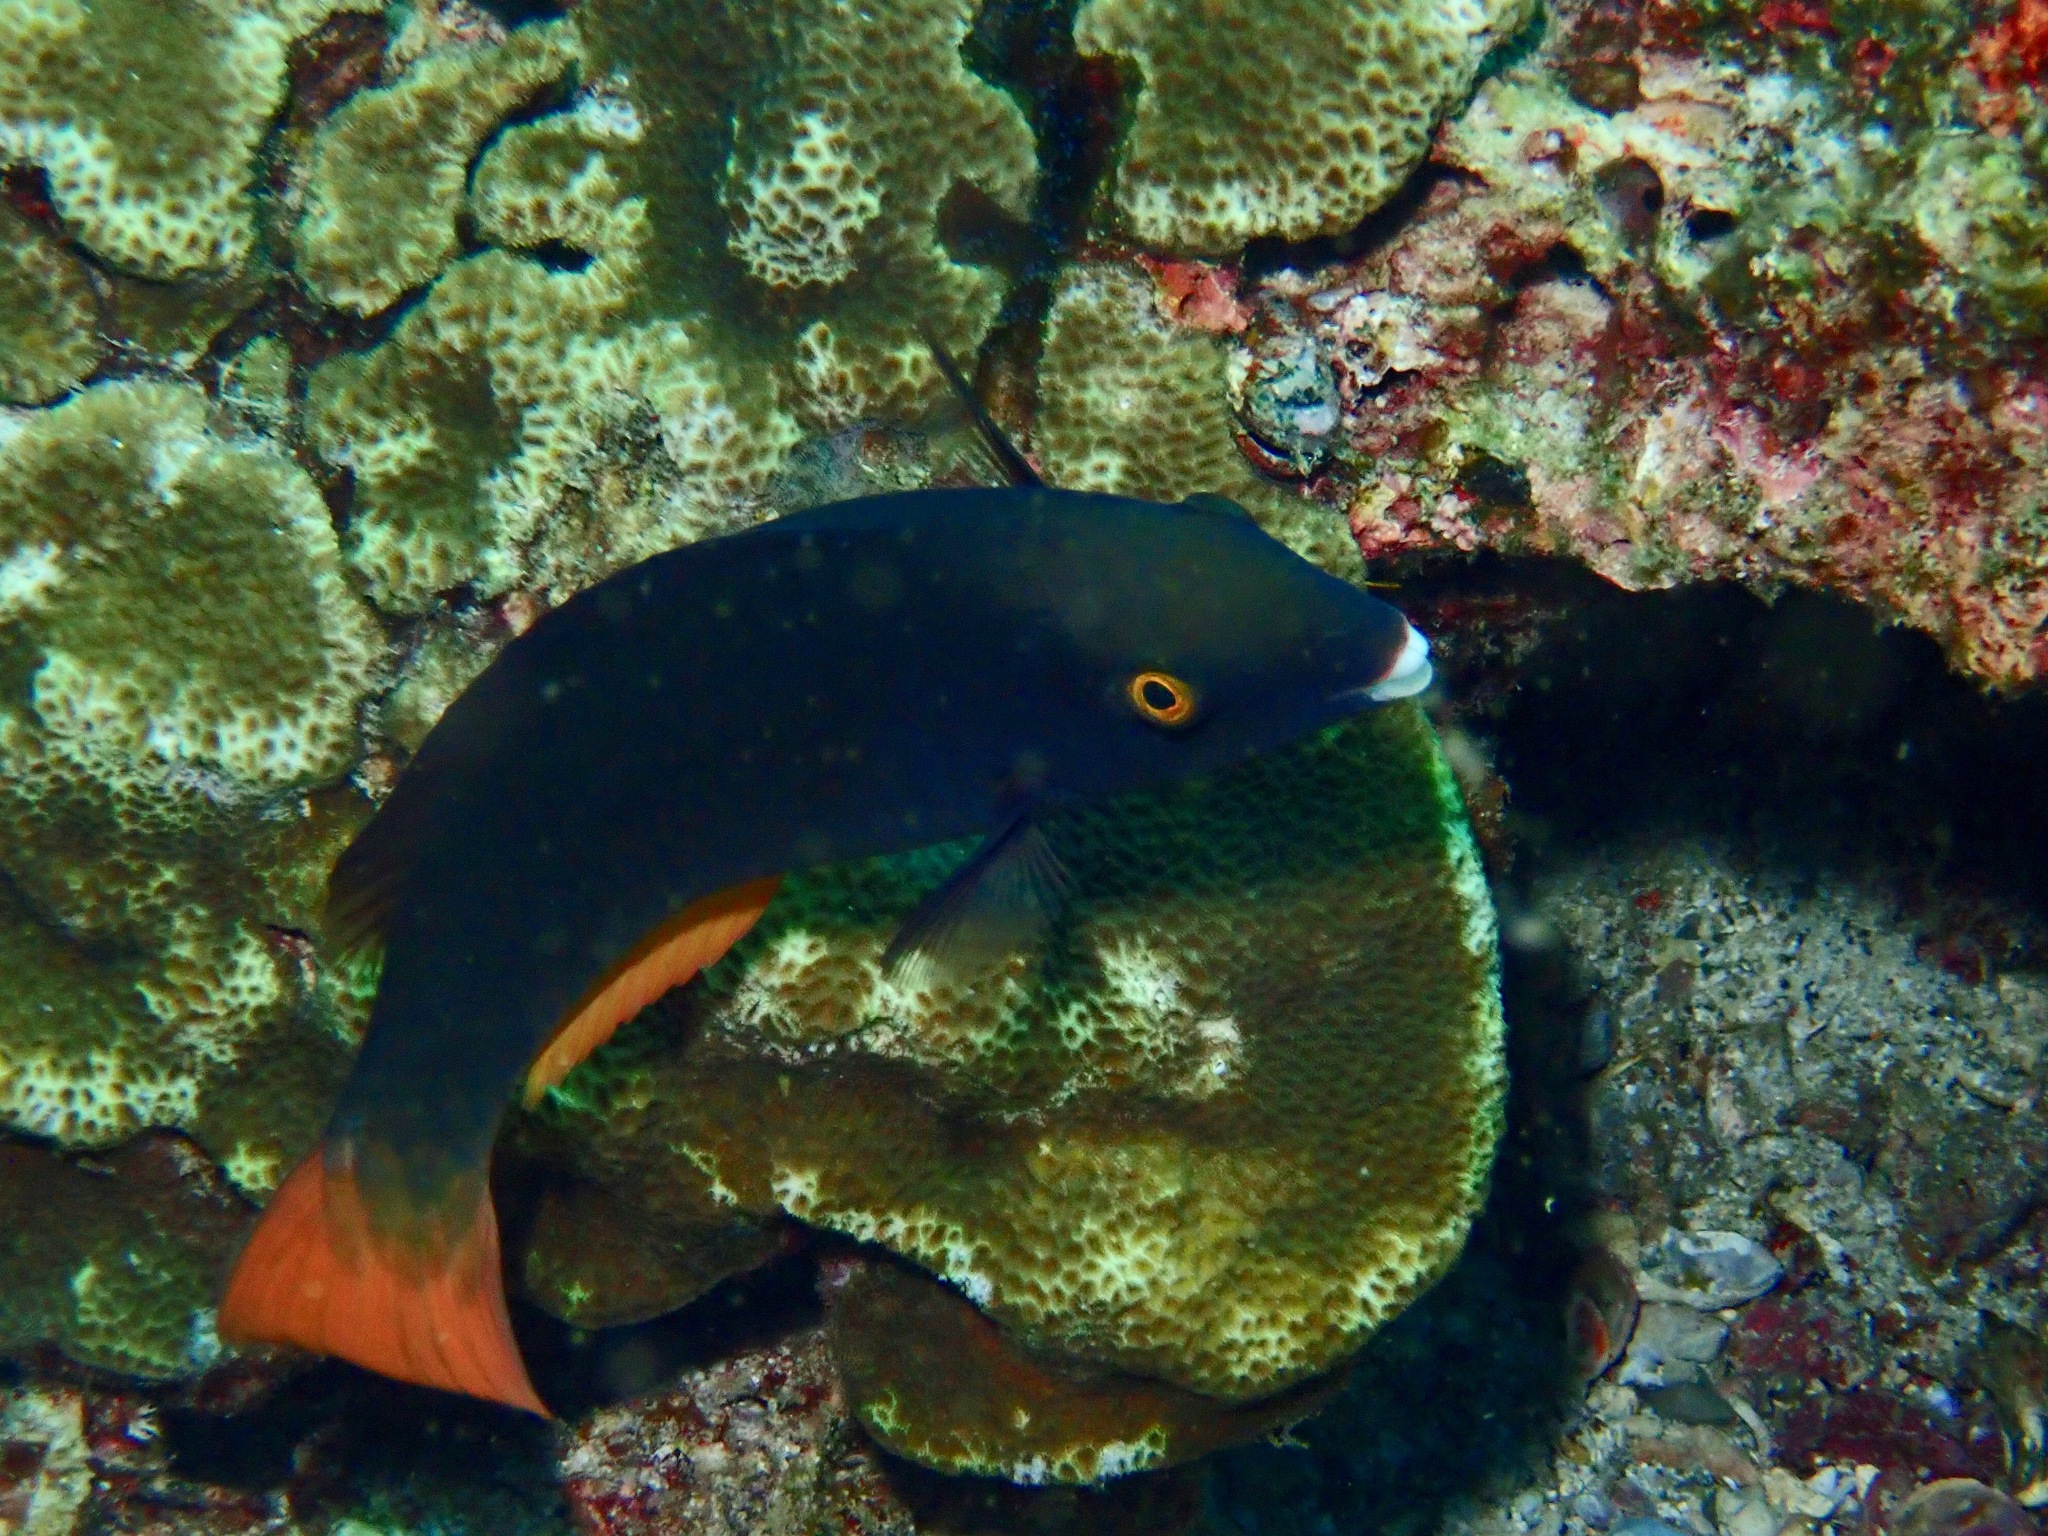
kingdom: Animalia
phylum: Chordata
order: Perciformes
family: Scaridae
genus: Scarus
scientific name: Scarus tricolor
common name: Tricolour parrotfish
